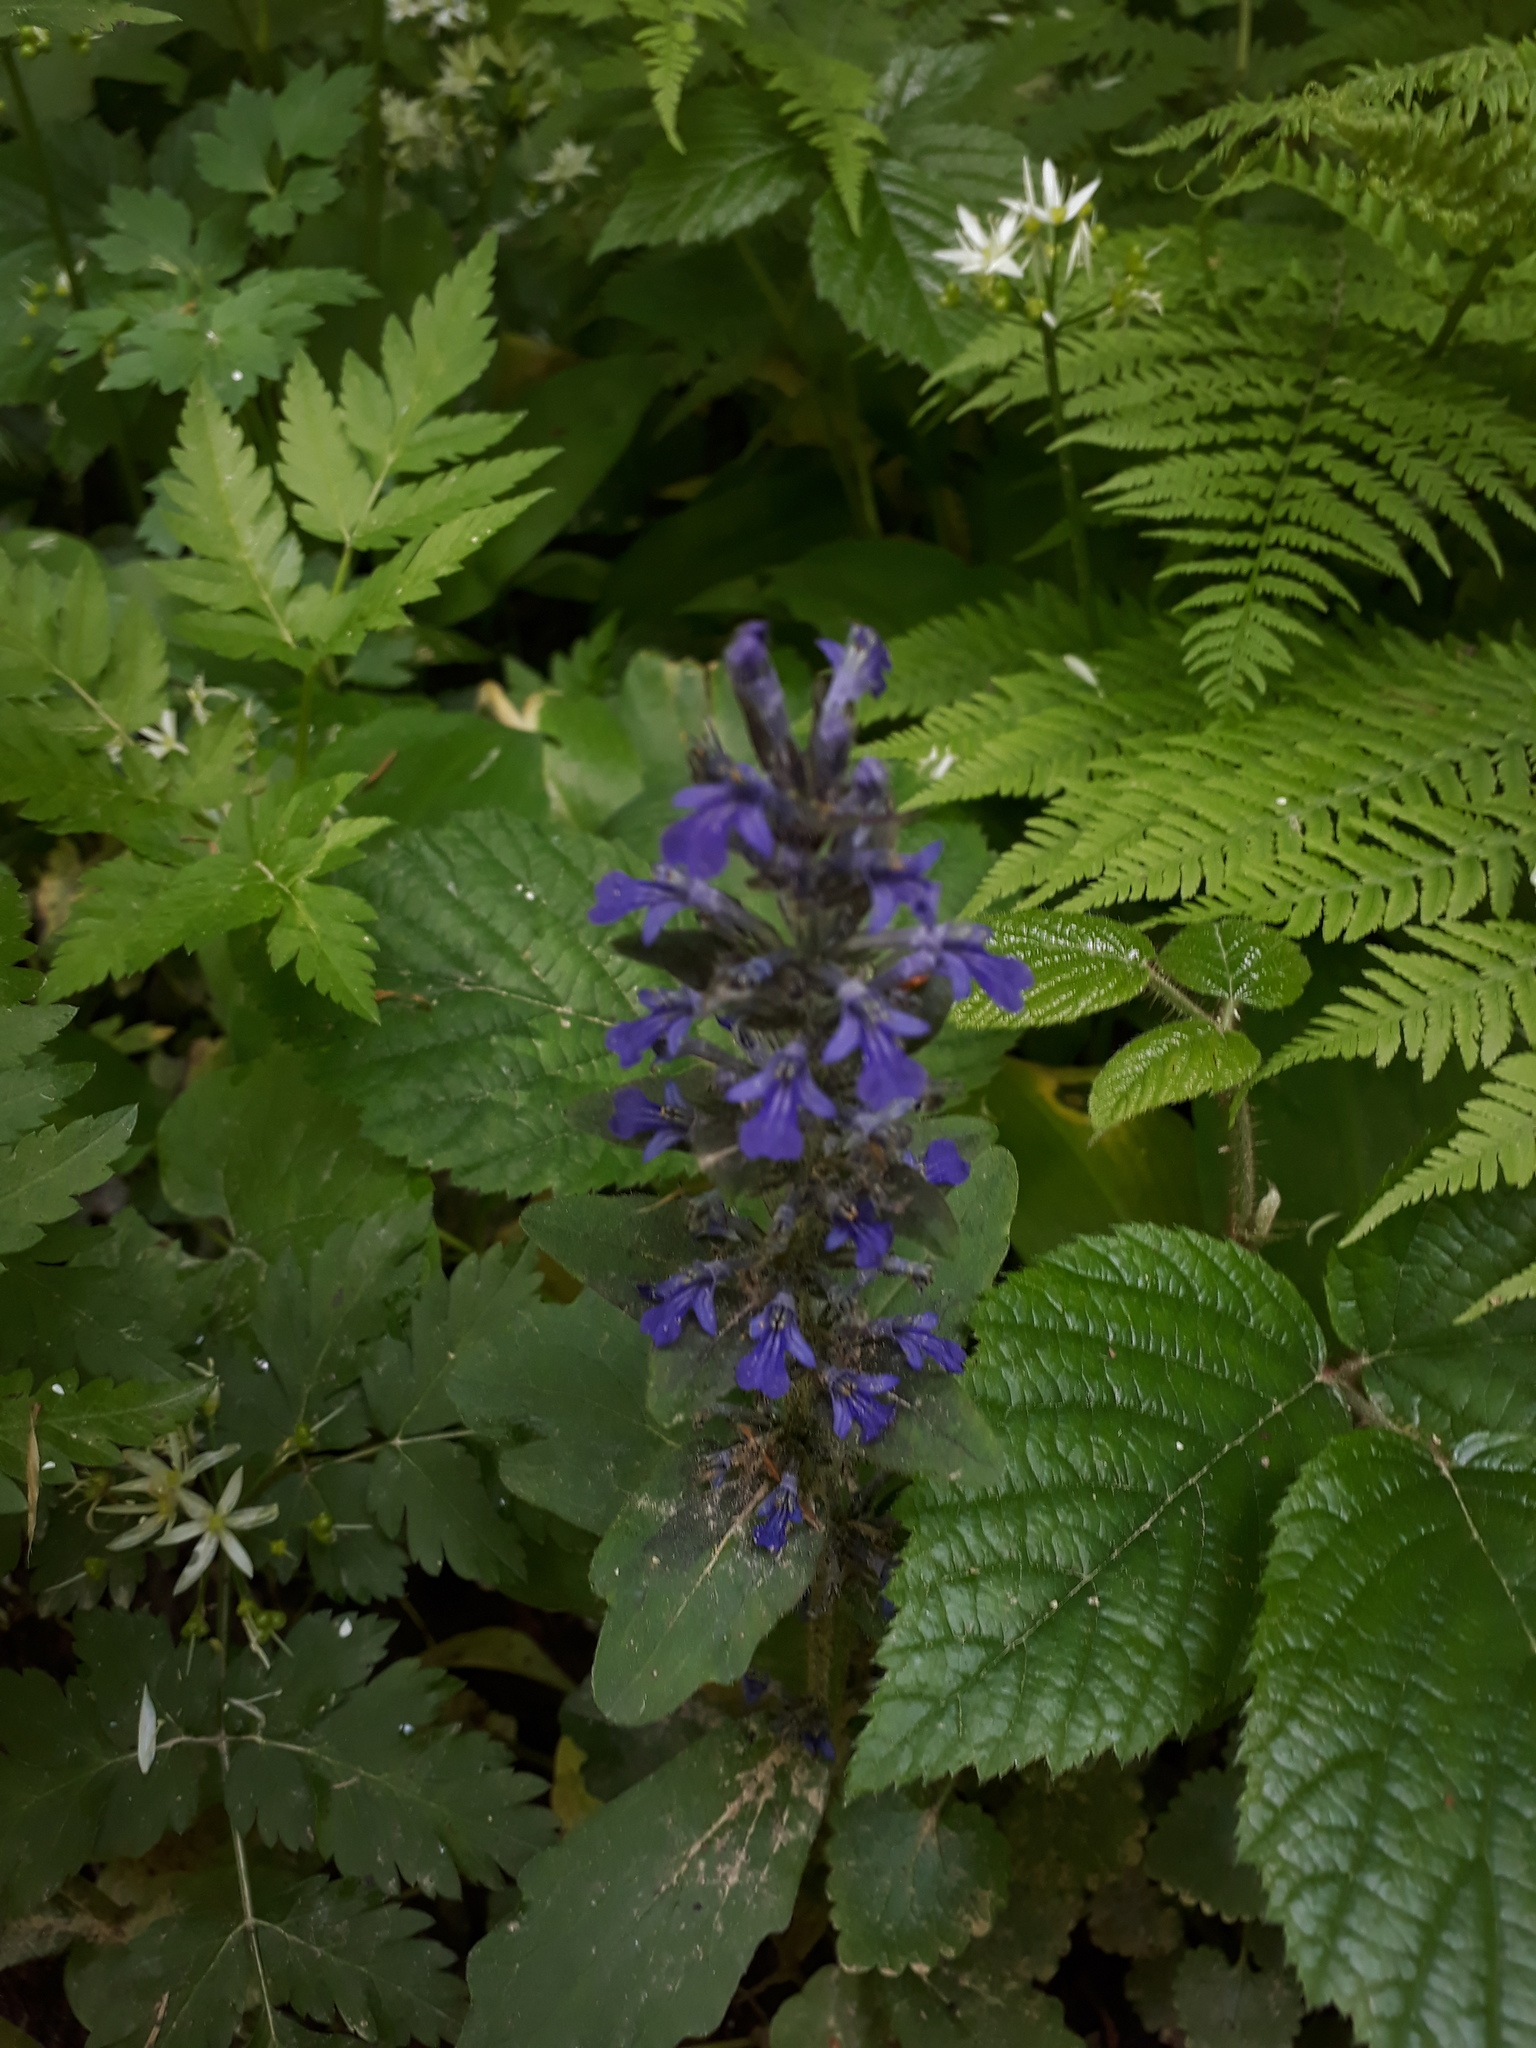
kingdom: Plantae
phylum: Tracheophyta
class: Magnoliopsida
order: Lamiales
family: Lamiaceae
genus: Ajuga
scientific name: Ajuga reptans
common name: Bugle
